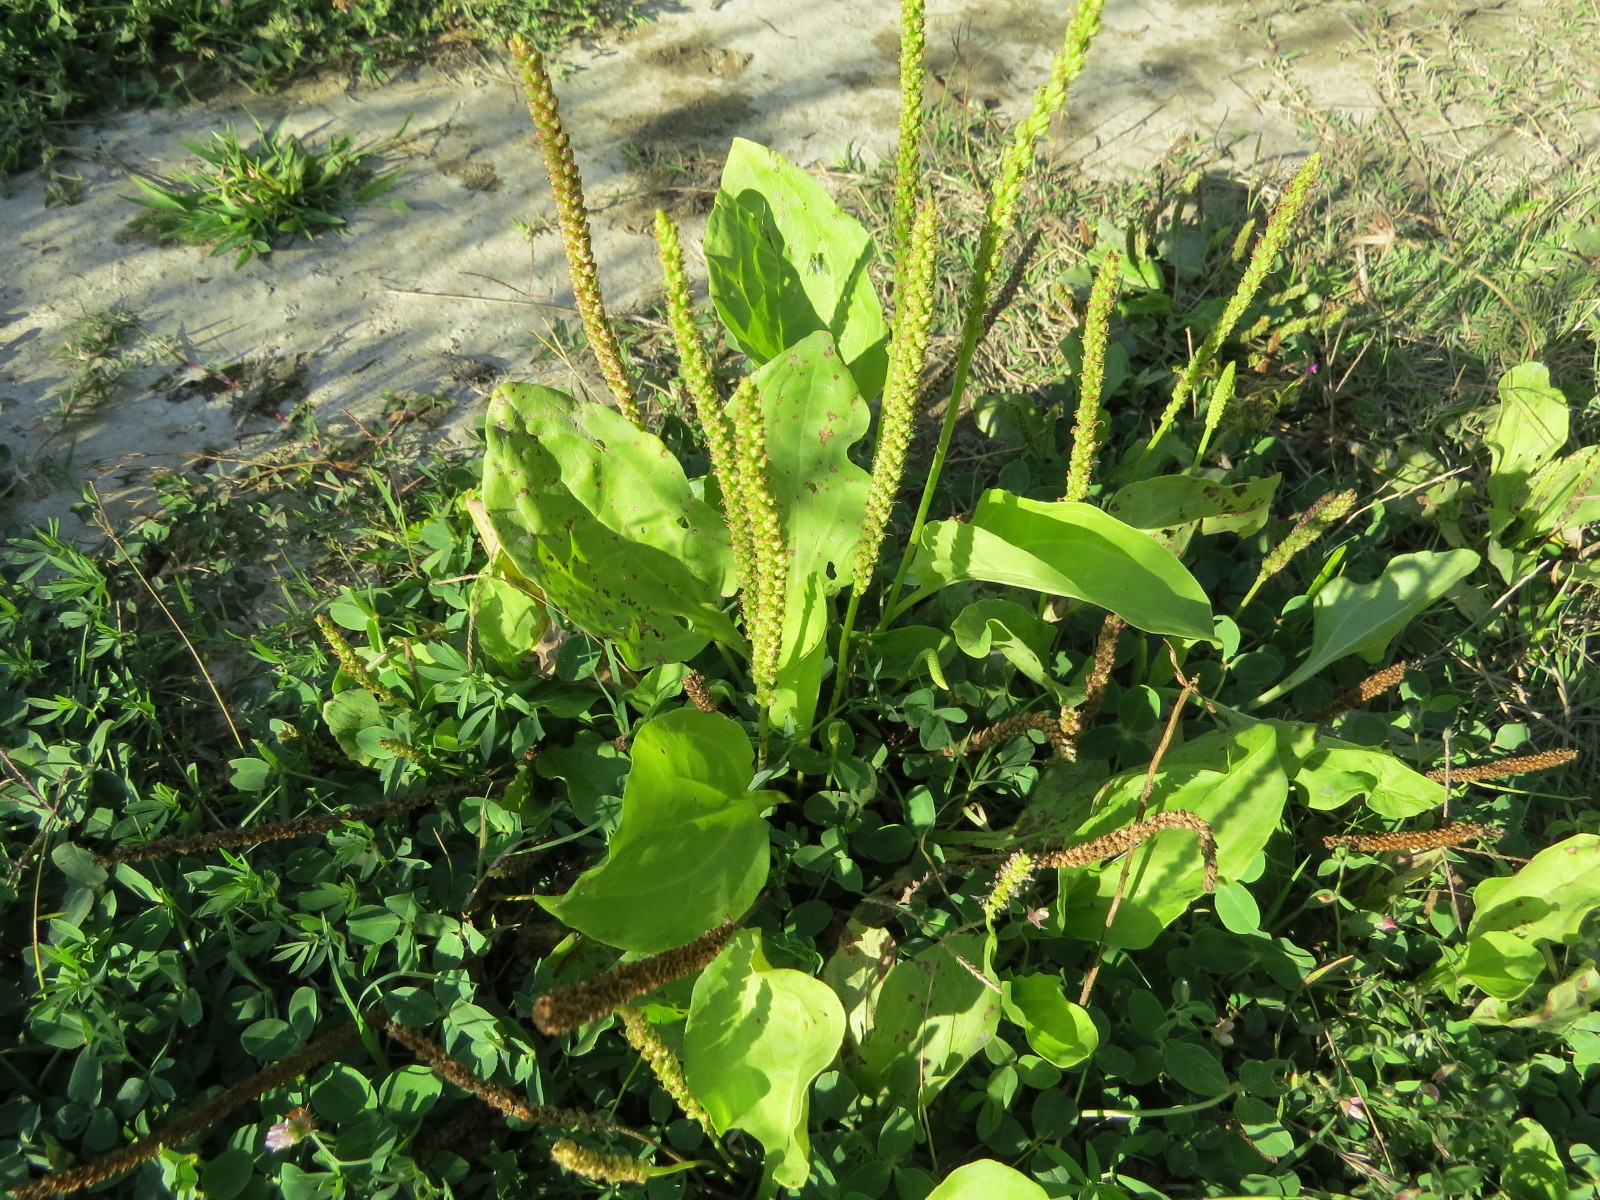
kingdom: Plantae
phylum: Tracheophyta
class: Magnoliopsida
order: Lamiales
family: Plantaginaceae
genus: Plantago
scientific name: Plantago major
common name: Common plantain
